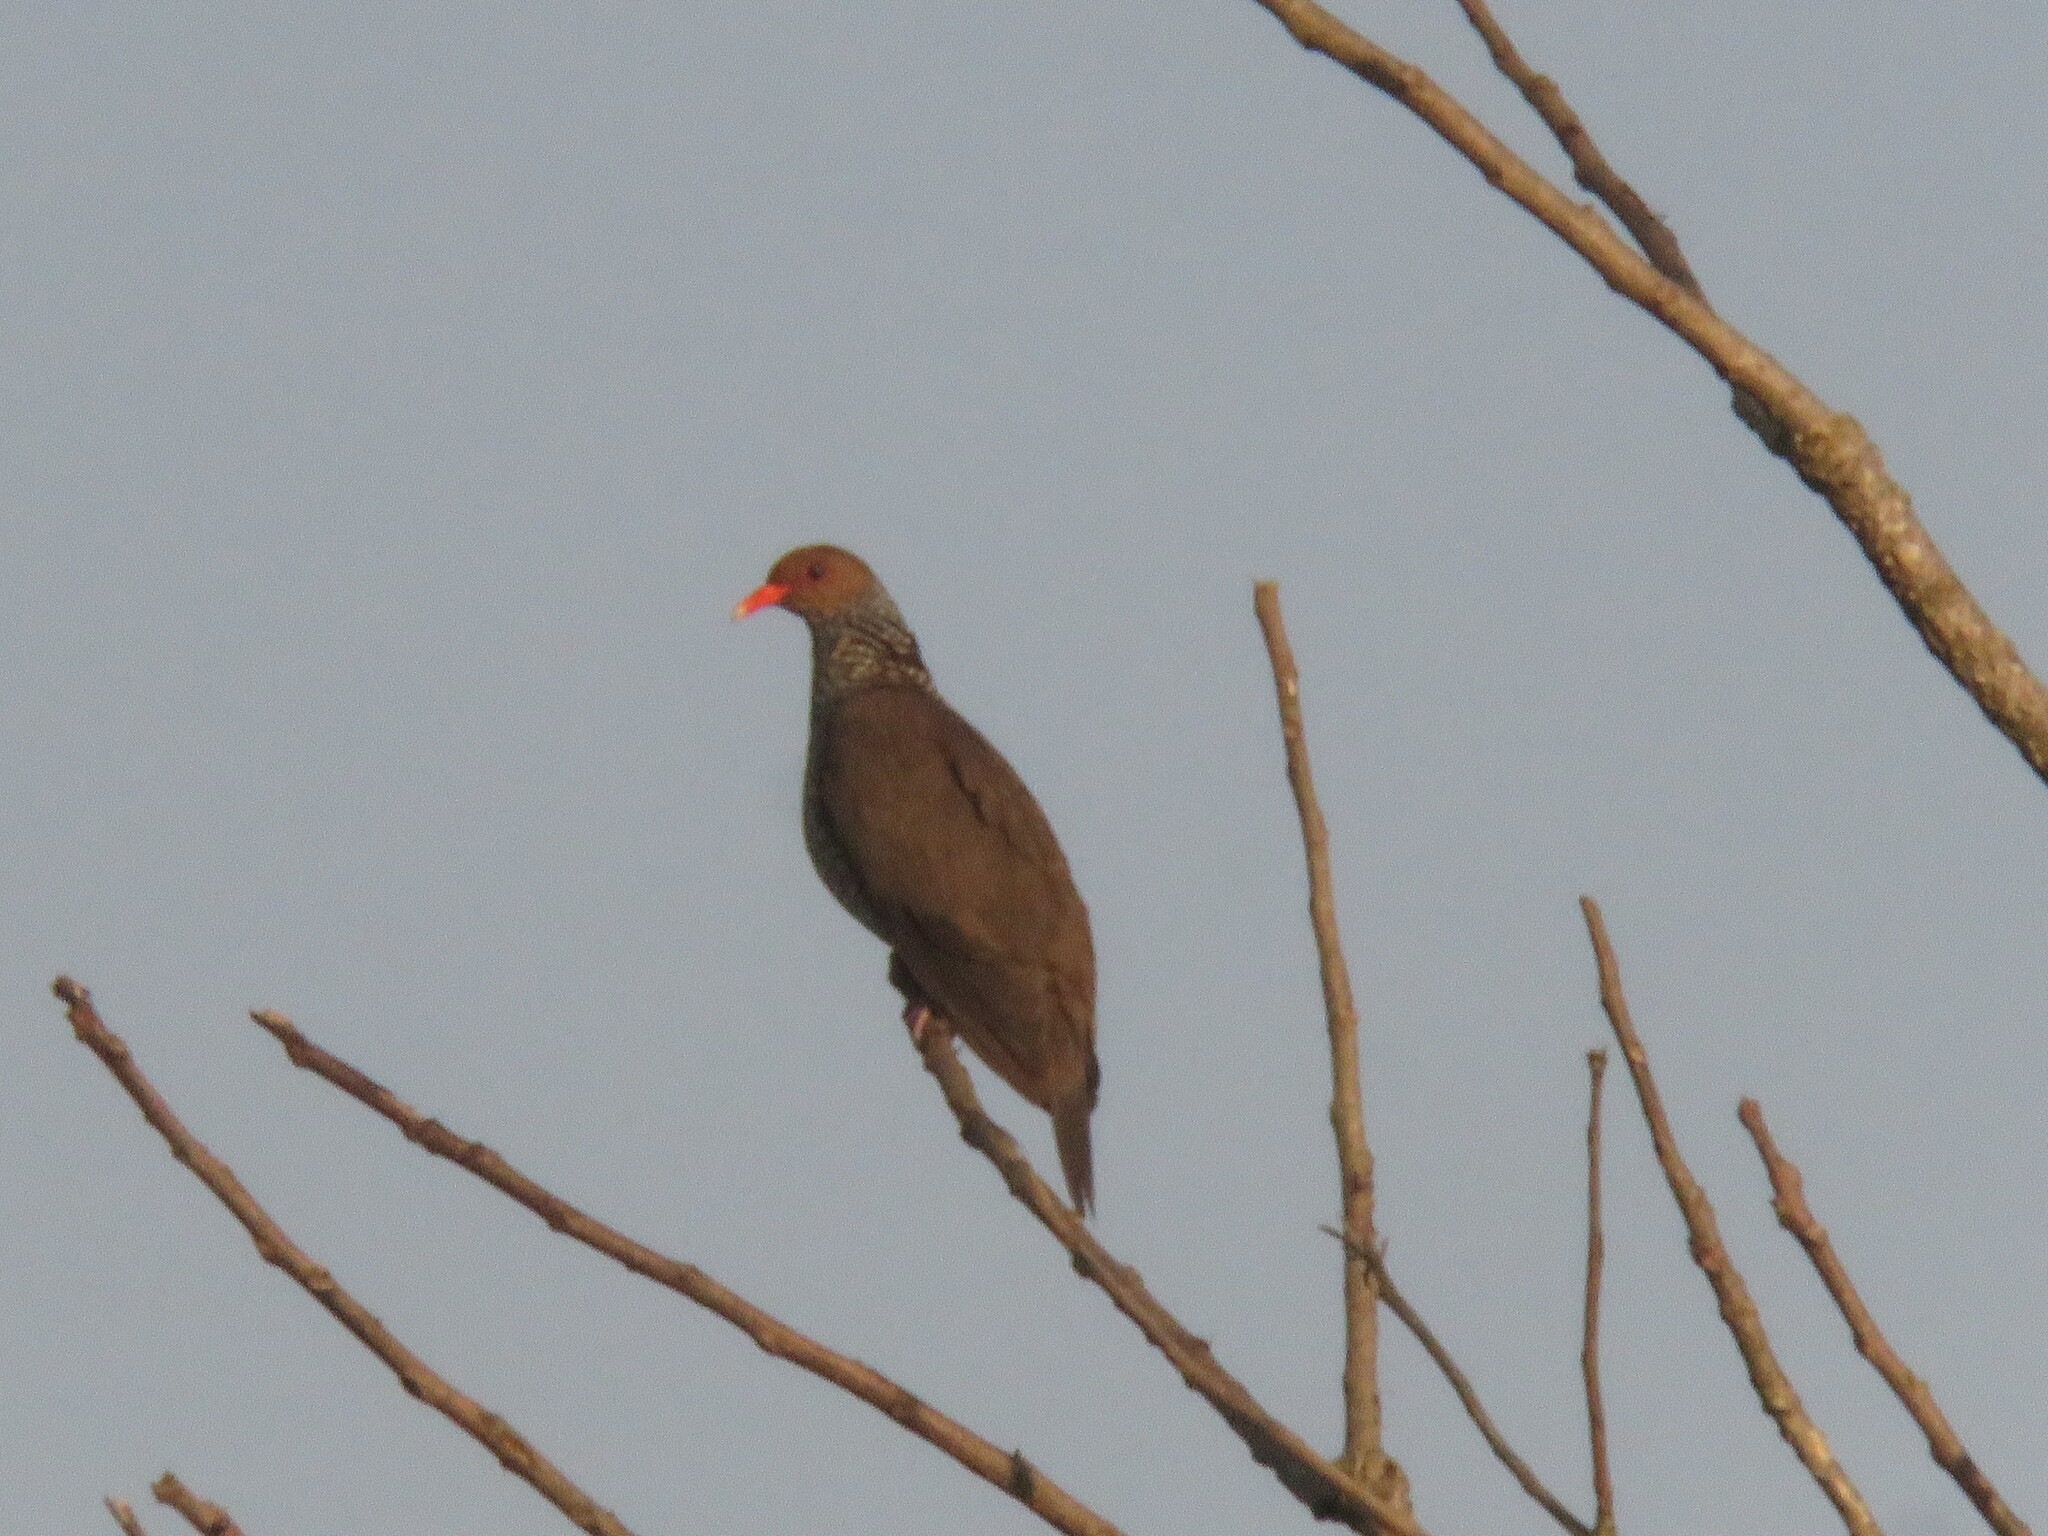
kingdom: Animalia
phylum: Chordata
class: Aves
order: Columbiformes
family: Columbidae
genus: Patagioenas
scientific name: Patagioenas speciosa
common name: Scaled pigeon
